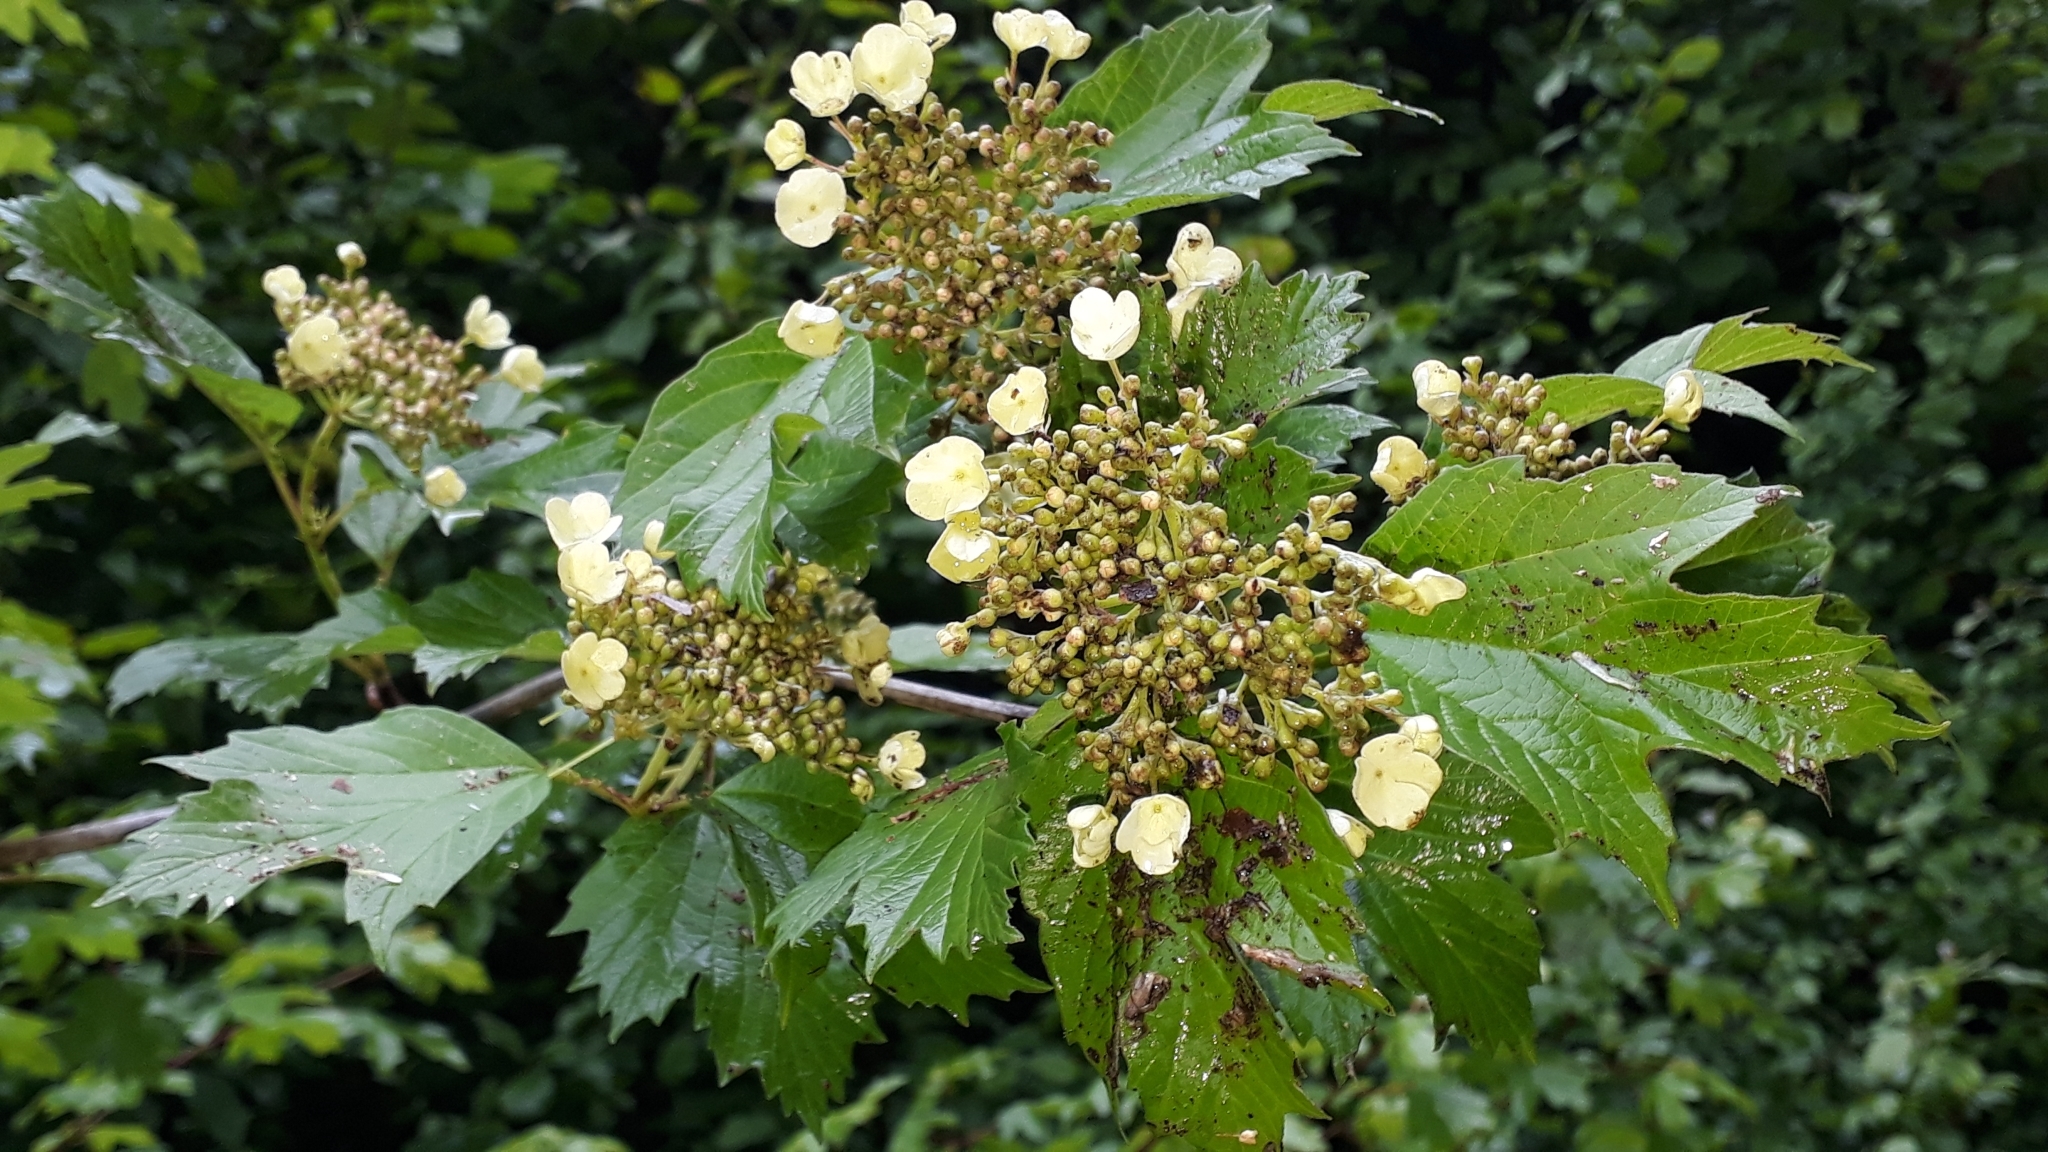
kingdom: Plantae
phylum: Tracheophyta
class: Magnoliopsida
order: Dipsacales
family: Viburnaceae
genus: Viburnum
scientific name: Viburnum opulus
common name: Guelder-rose
